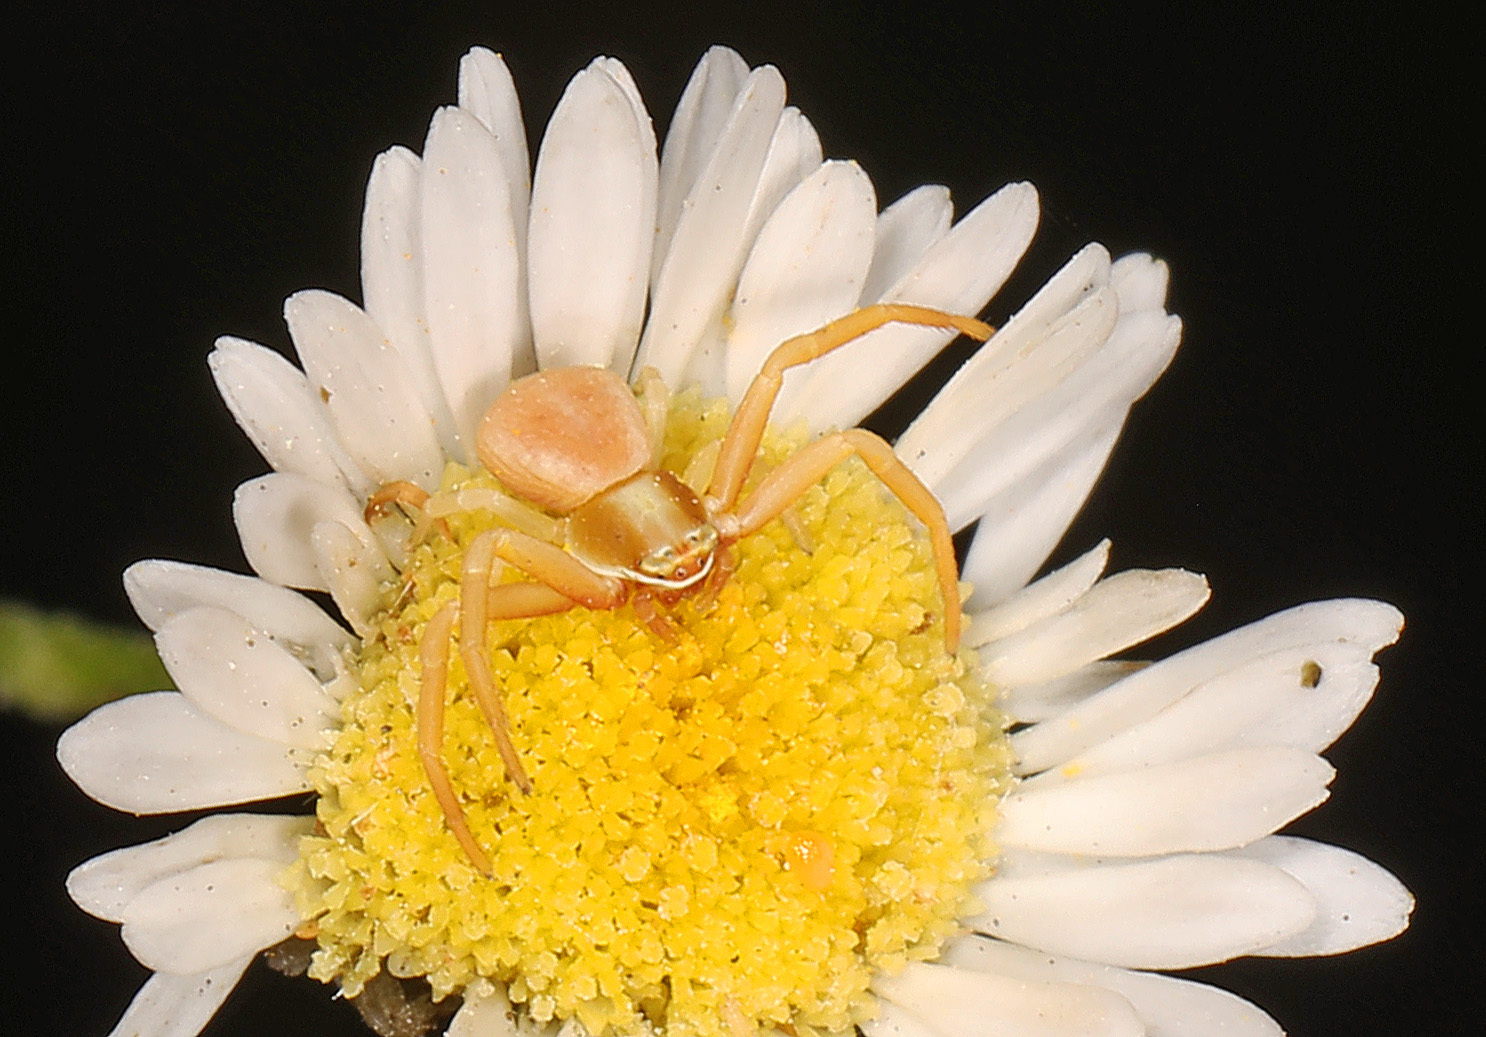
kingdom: Animalia
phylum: Arthropoda
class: Arachnida
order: Araneae
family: Thomisidae
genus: Misumenoides
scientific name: Misumenoides formosipes
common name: White-banded crab spider
